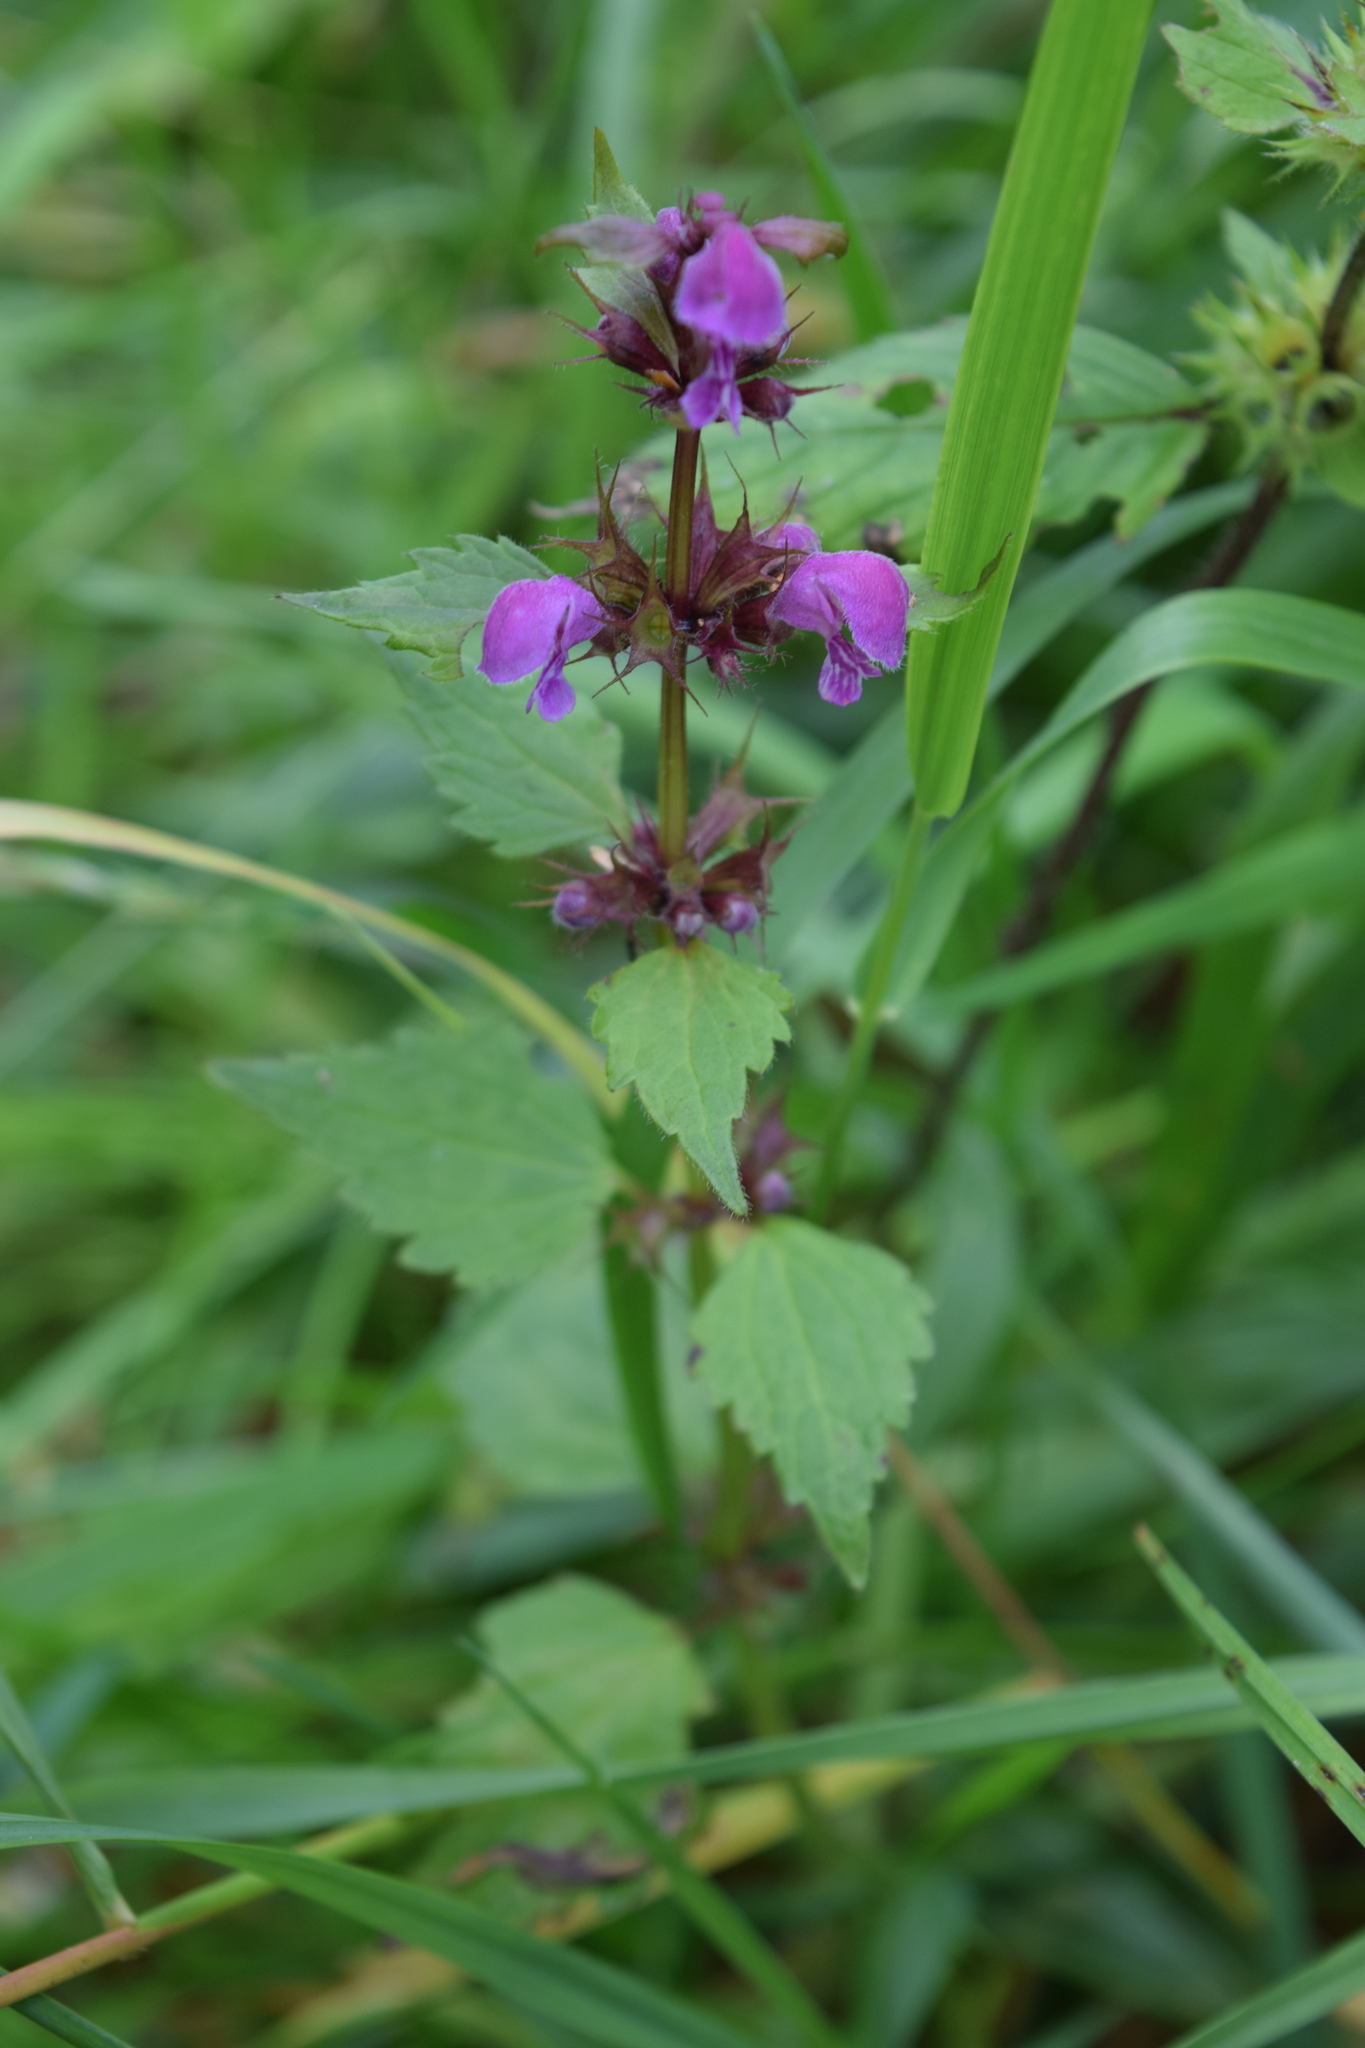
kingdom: Plantae
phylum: Tracheophyta
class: Magnoliopsida
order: Lamiales
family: Lamiaceae
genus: Lamium
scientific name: Lamium maculatum
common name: Spotted dead-nettle
